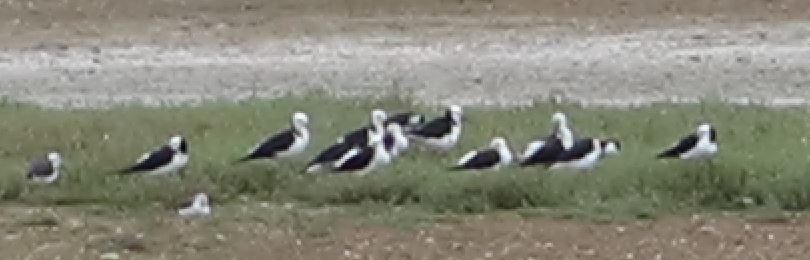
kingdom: Animalia
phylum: Chordata
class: Aves
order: Charadriiformes
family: Recurvirostridae
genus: Himantopus
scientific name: Himantopus leucocephalus
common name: White-headed stilt
